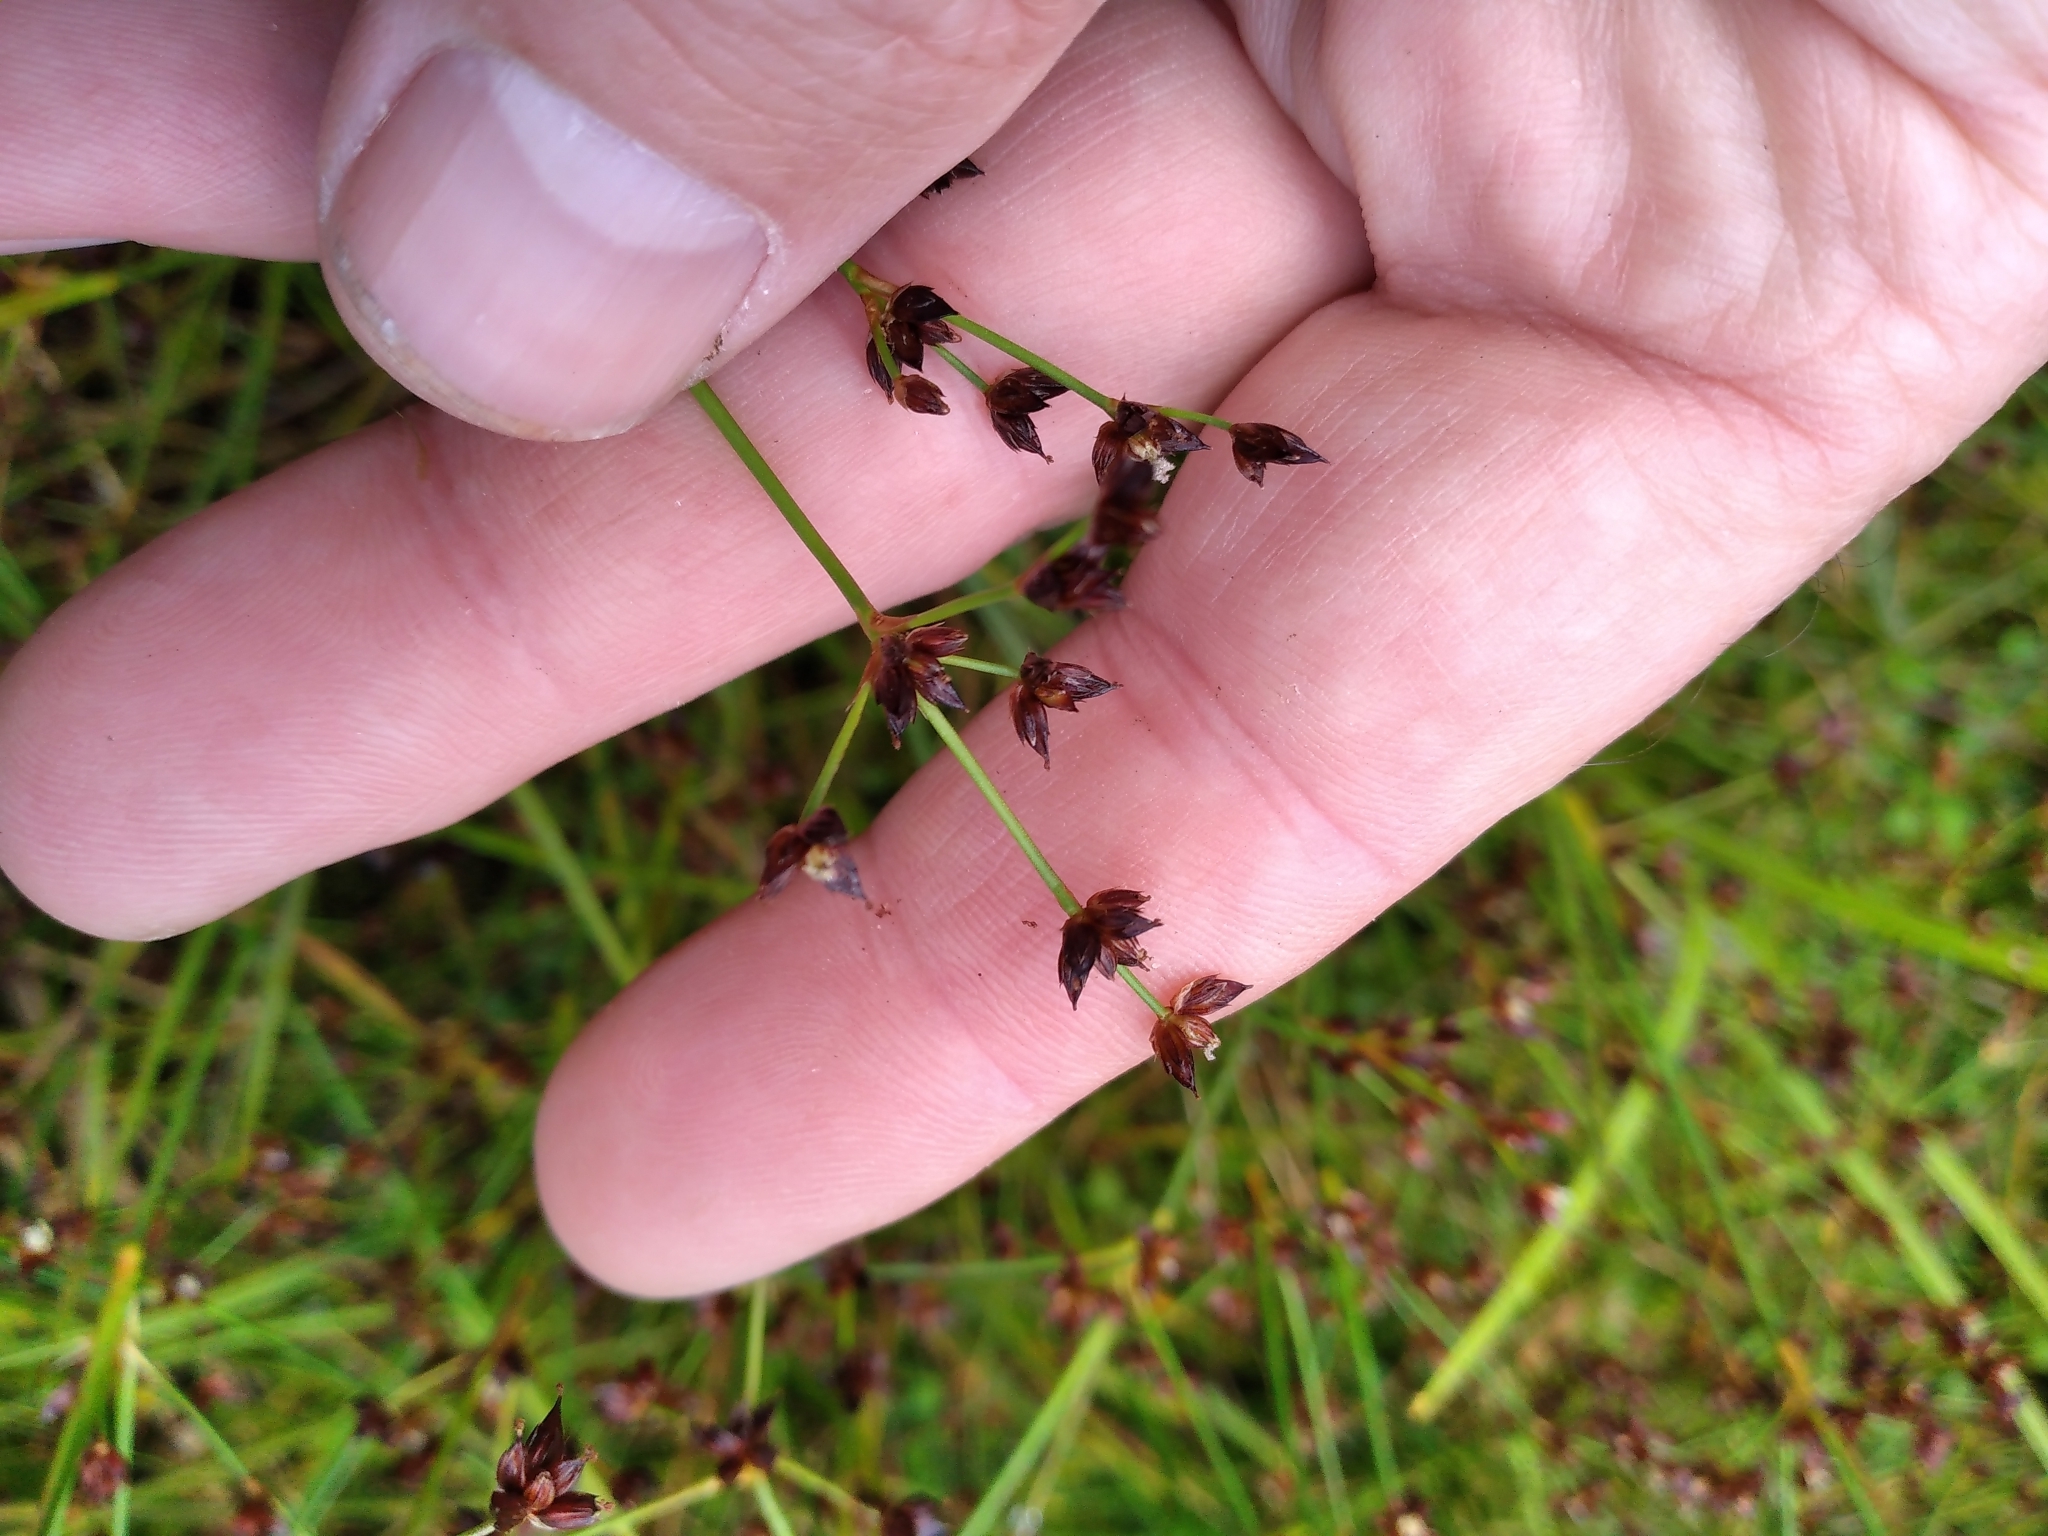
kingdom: Plantae
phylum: Tracheophyta
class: Liliopsida
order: Poales
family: Juncaceae
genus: Juncus
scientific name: Juncus articulatus
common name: Jointed rush
